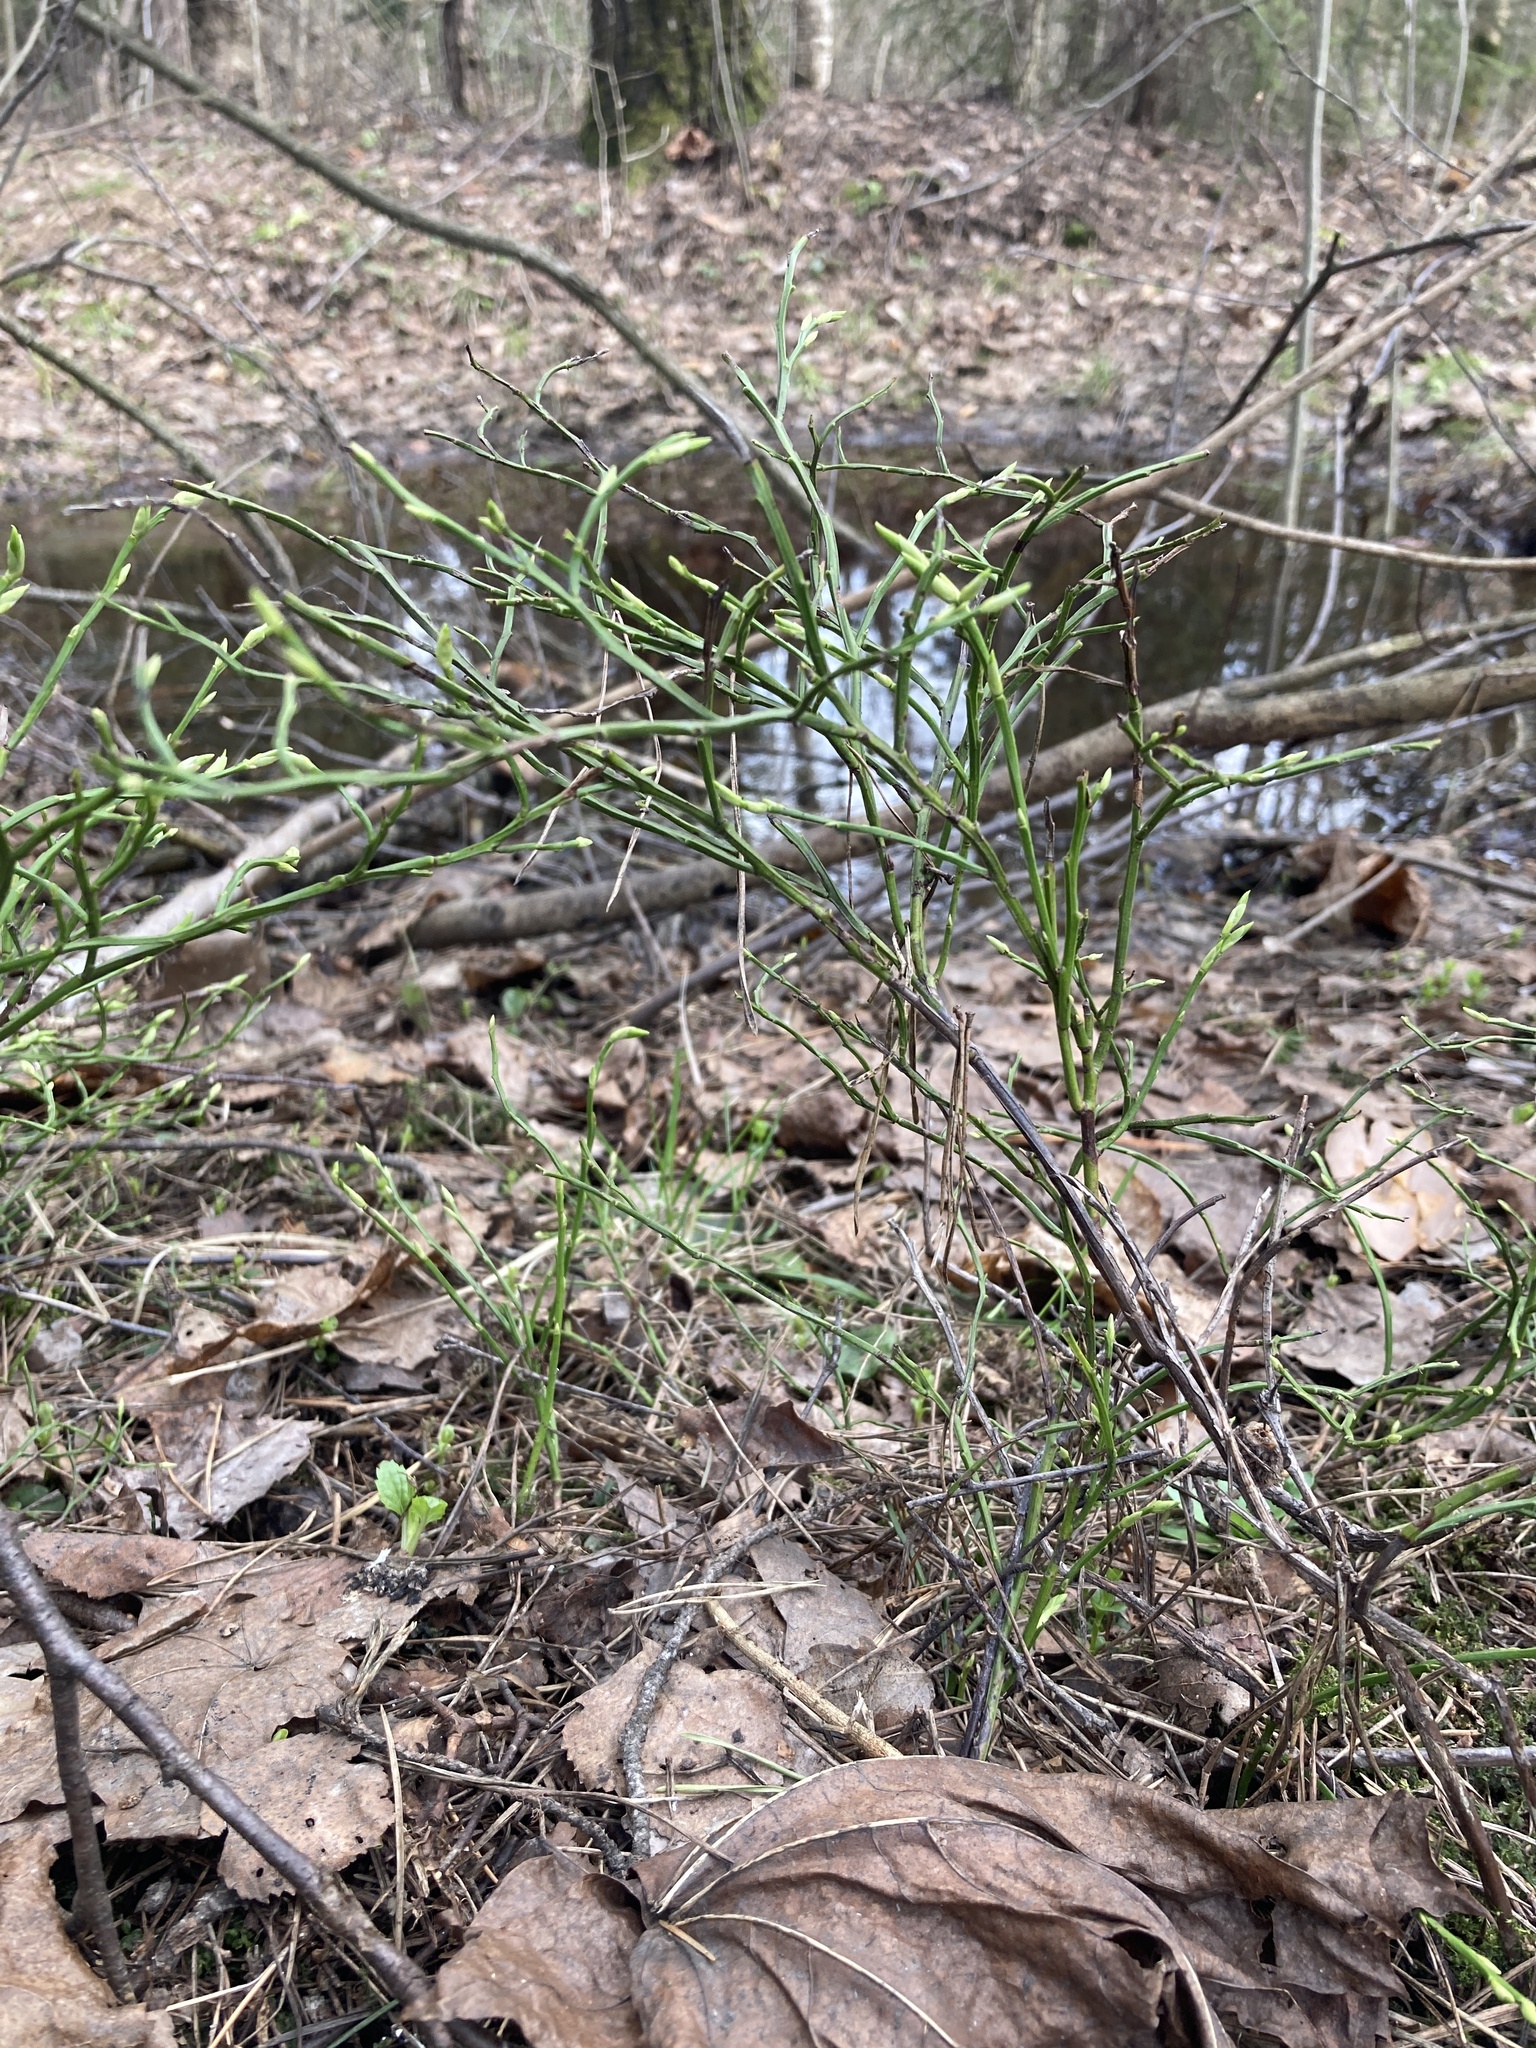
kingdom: Plantae
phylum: Tracheophyta
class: Magnoliopsida
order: Ericales
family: Ericaceae
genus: Vaccinium
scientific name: Vaccinium myrtillus
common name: Bilberry
